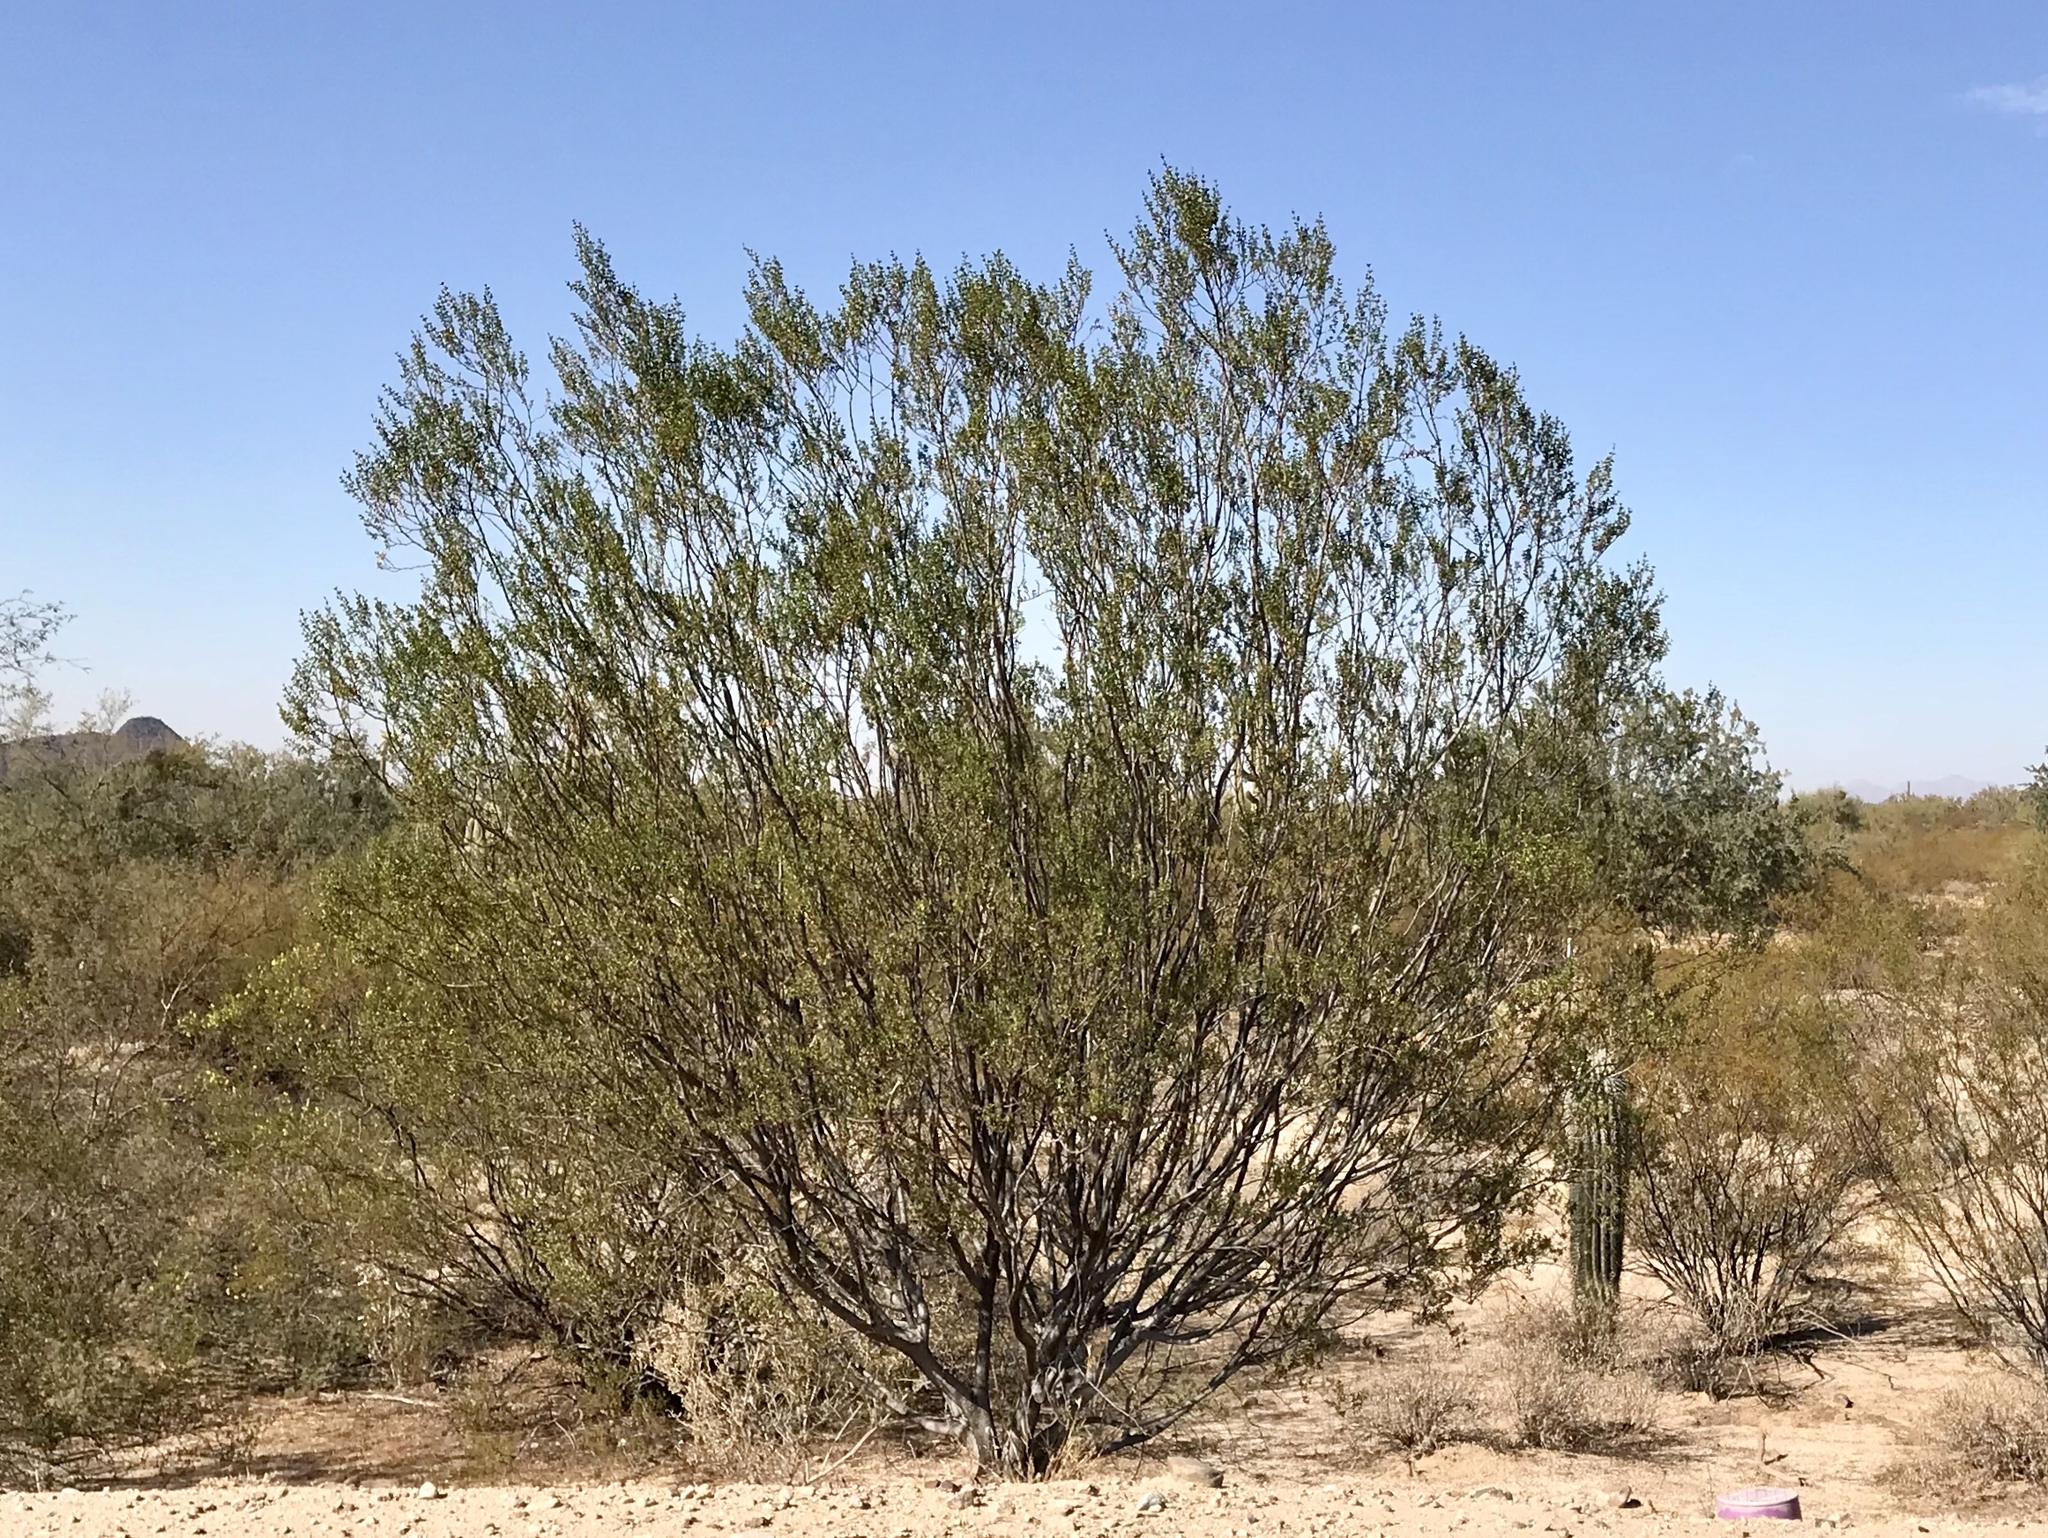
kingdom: Plantae
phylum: Tracheophyta
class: Magnoliopsida
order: Zygophyllales
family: Zygophyllaceae
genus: Larrea
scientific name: Larrea tridentata
